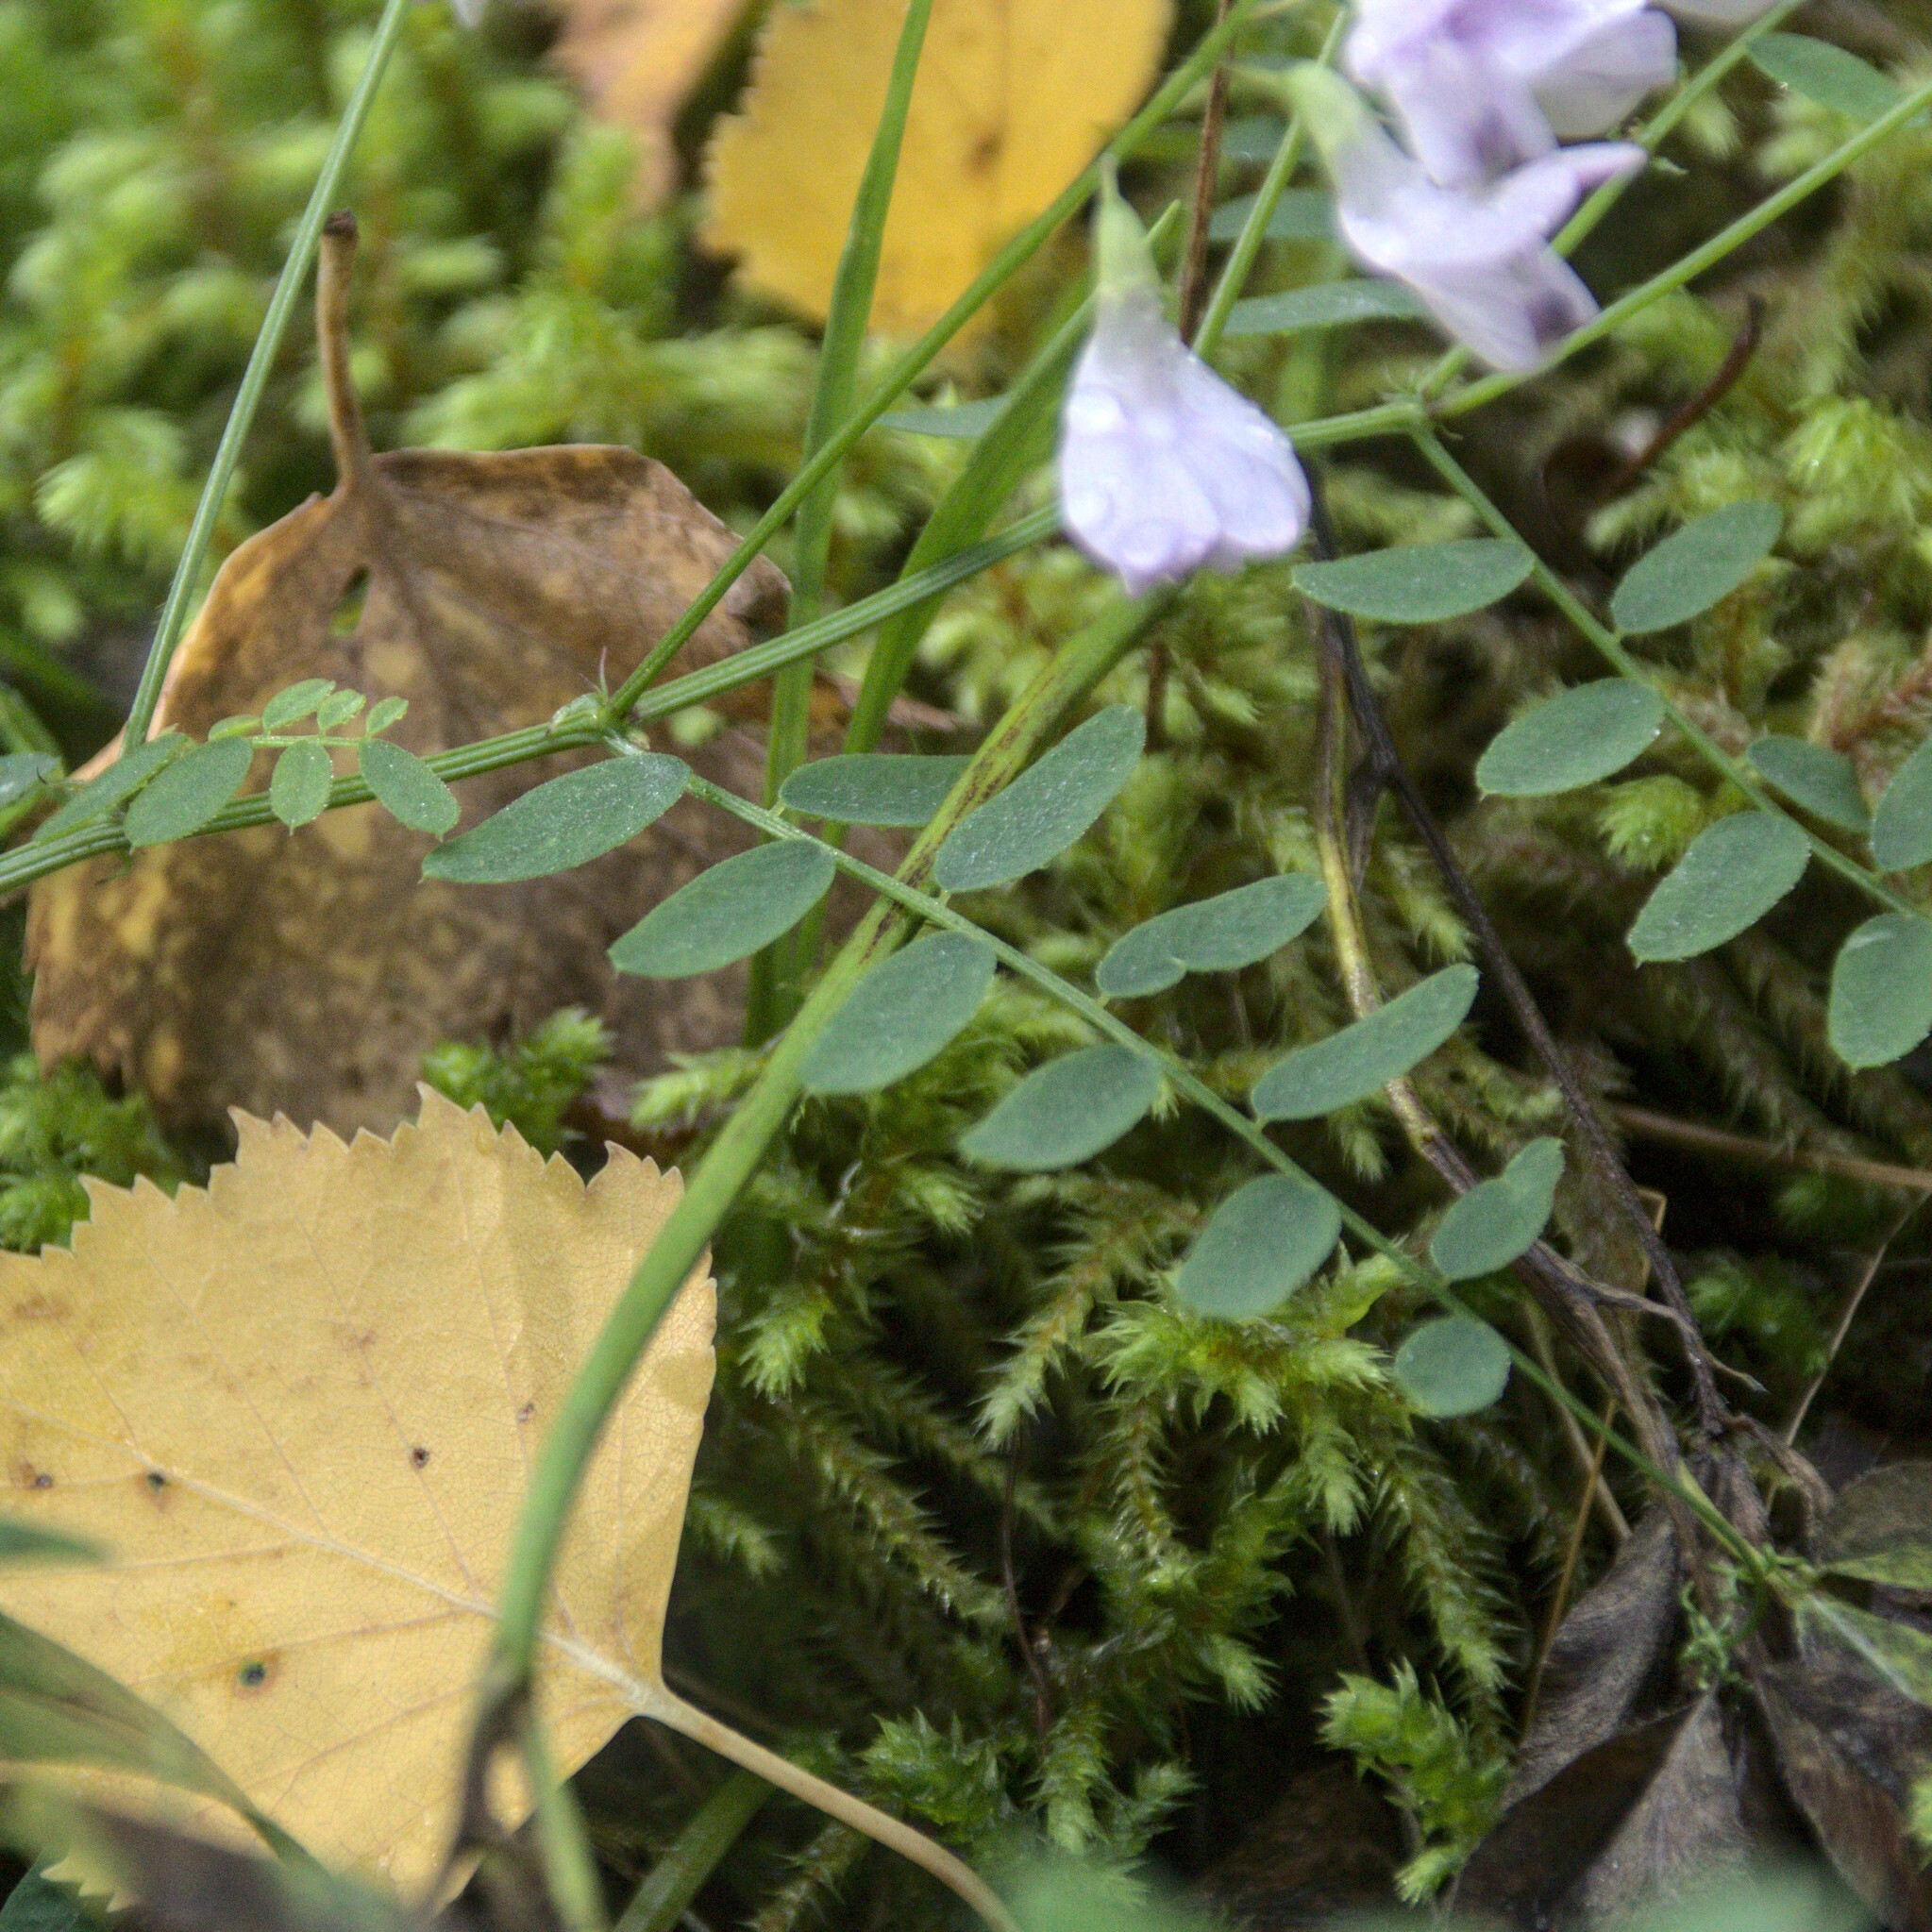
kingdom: Plantae
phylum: Tracheophyta
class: Magnoliopsida
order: Fabales
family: Fabaceae
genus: Vicia
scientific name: Vicia sylvatica
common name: Wood vetch
